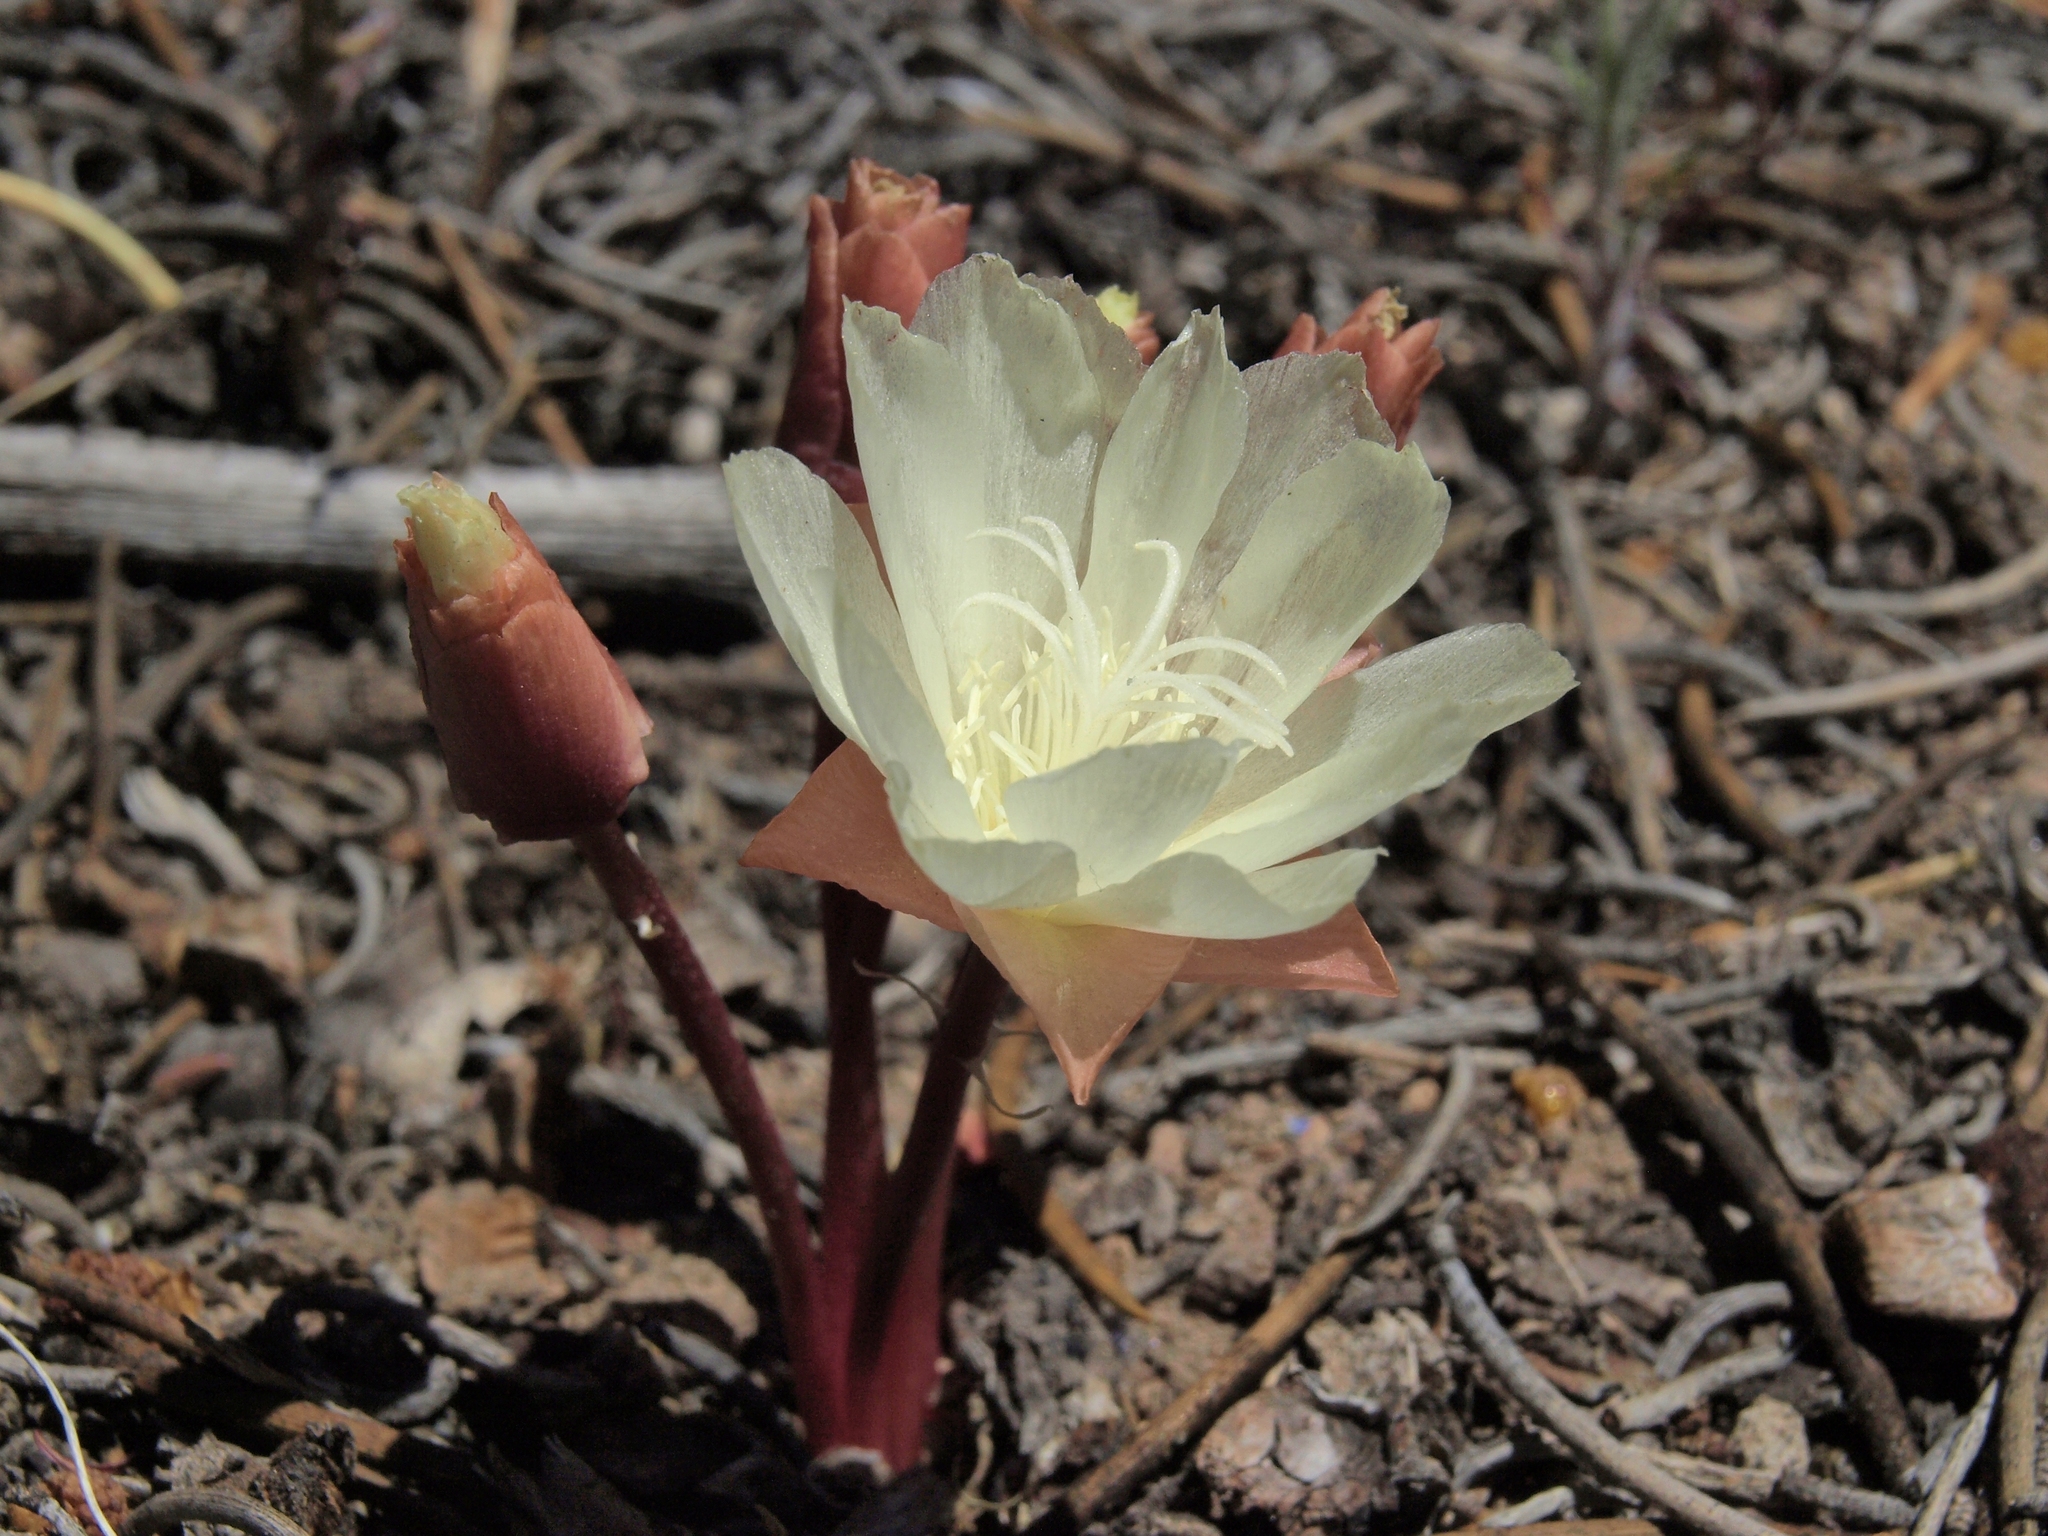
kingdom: Plantae
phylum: Tracheophyta
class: Magnoliopsida
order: Caryophyllales
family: Montiaceae
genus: Lewisia
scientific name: Lewisia rediviva
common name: Bitter-root
